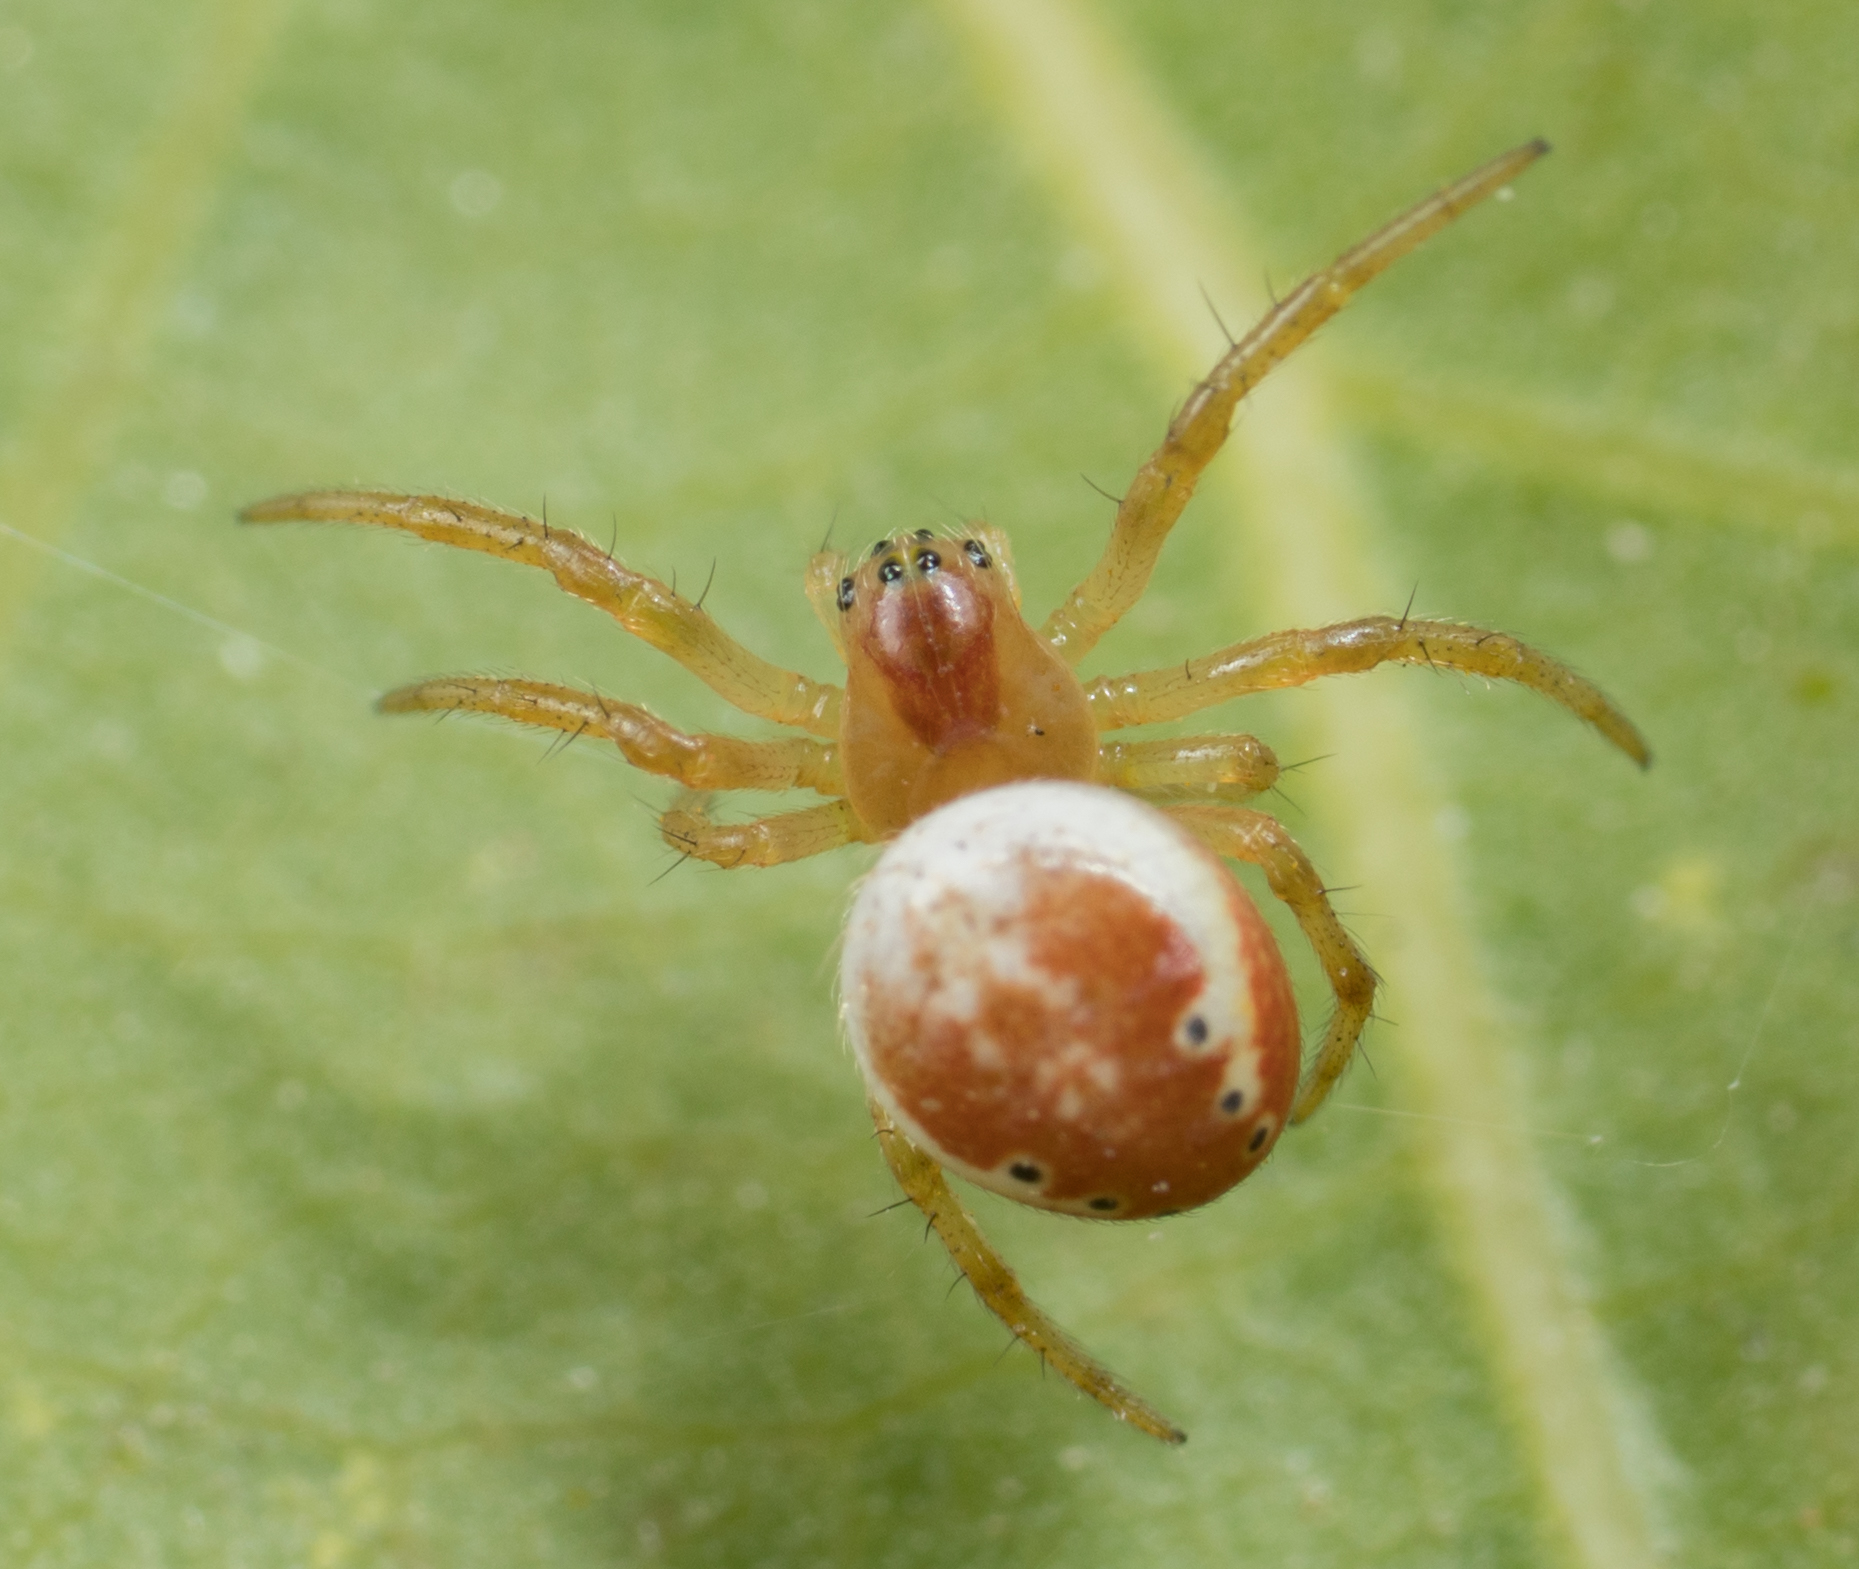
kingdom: Animalia
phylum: Arthropoda
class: Arachnida
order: Araneae
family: Araneidae
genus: Araniella
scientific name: Araniella displicata
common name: Sixspotted orb weaver
